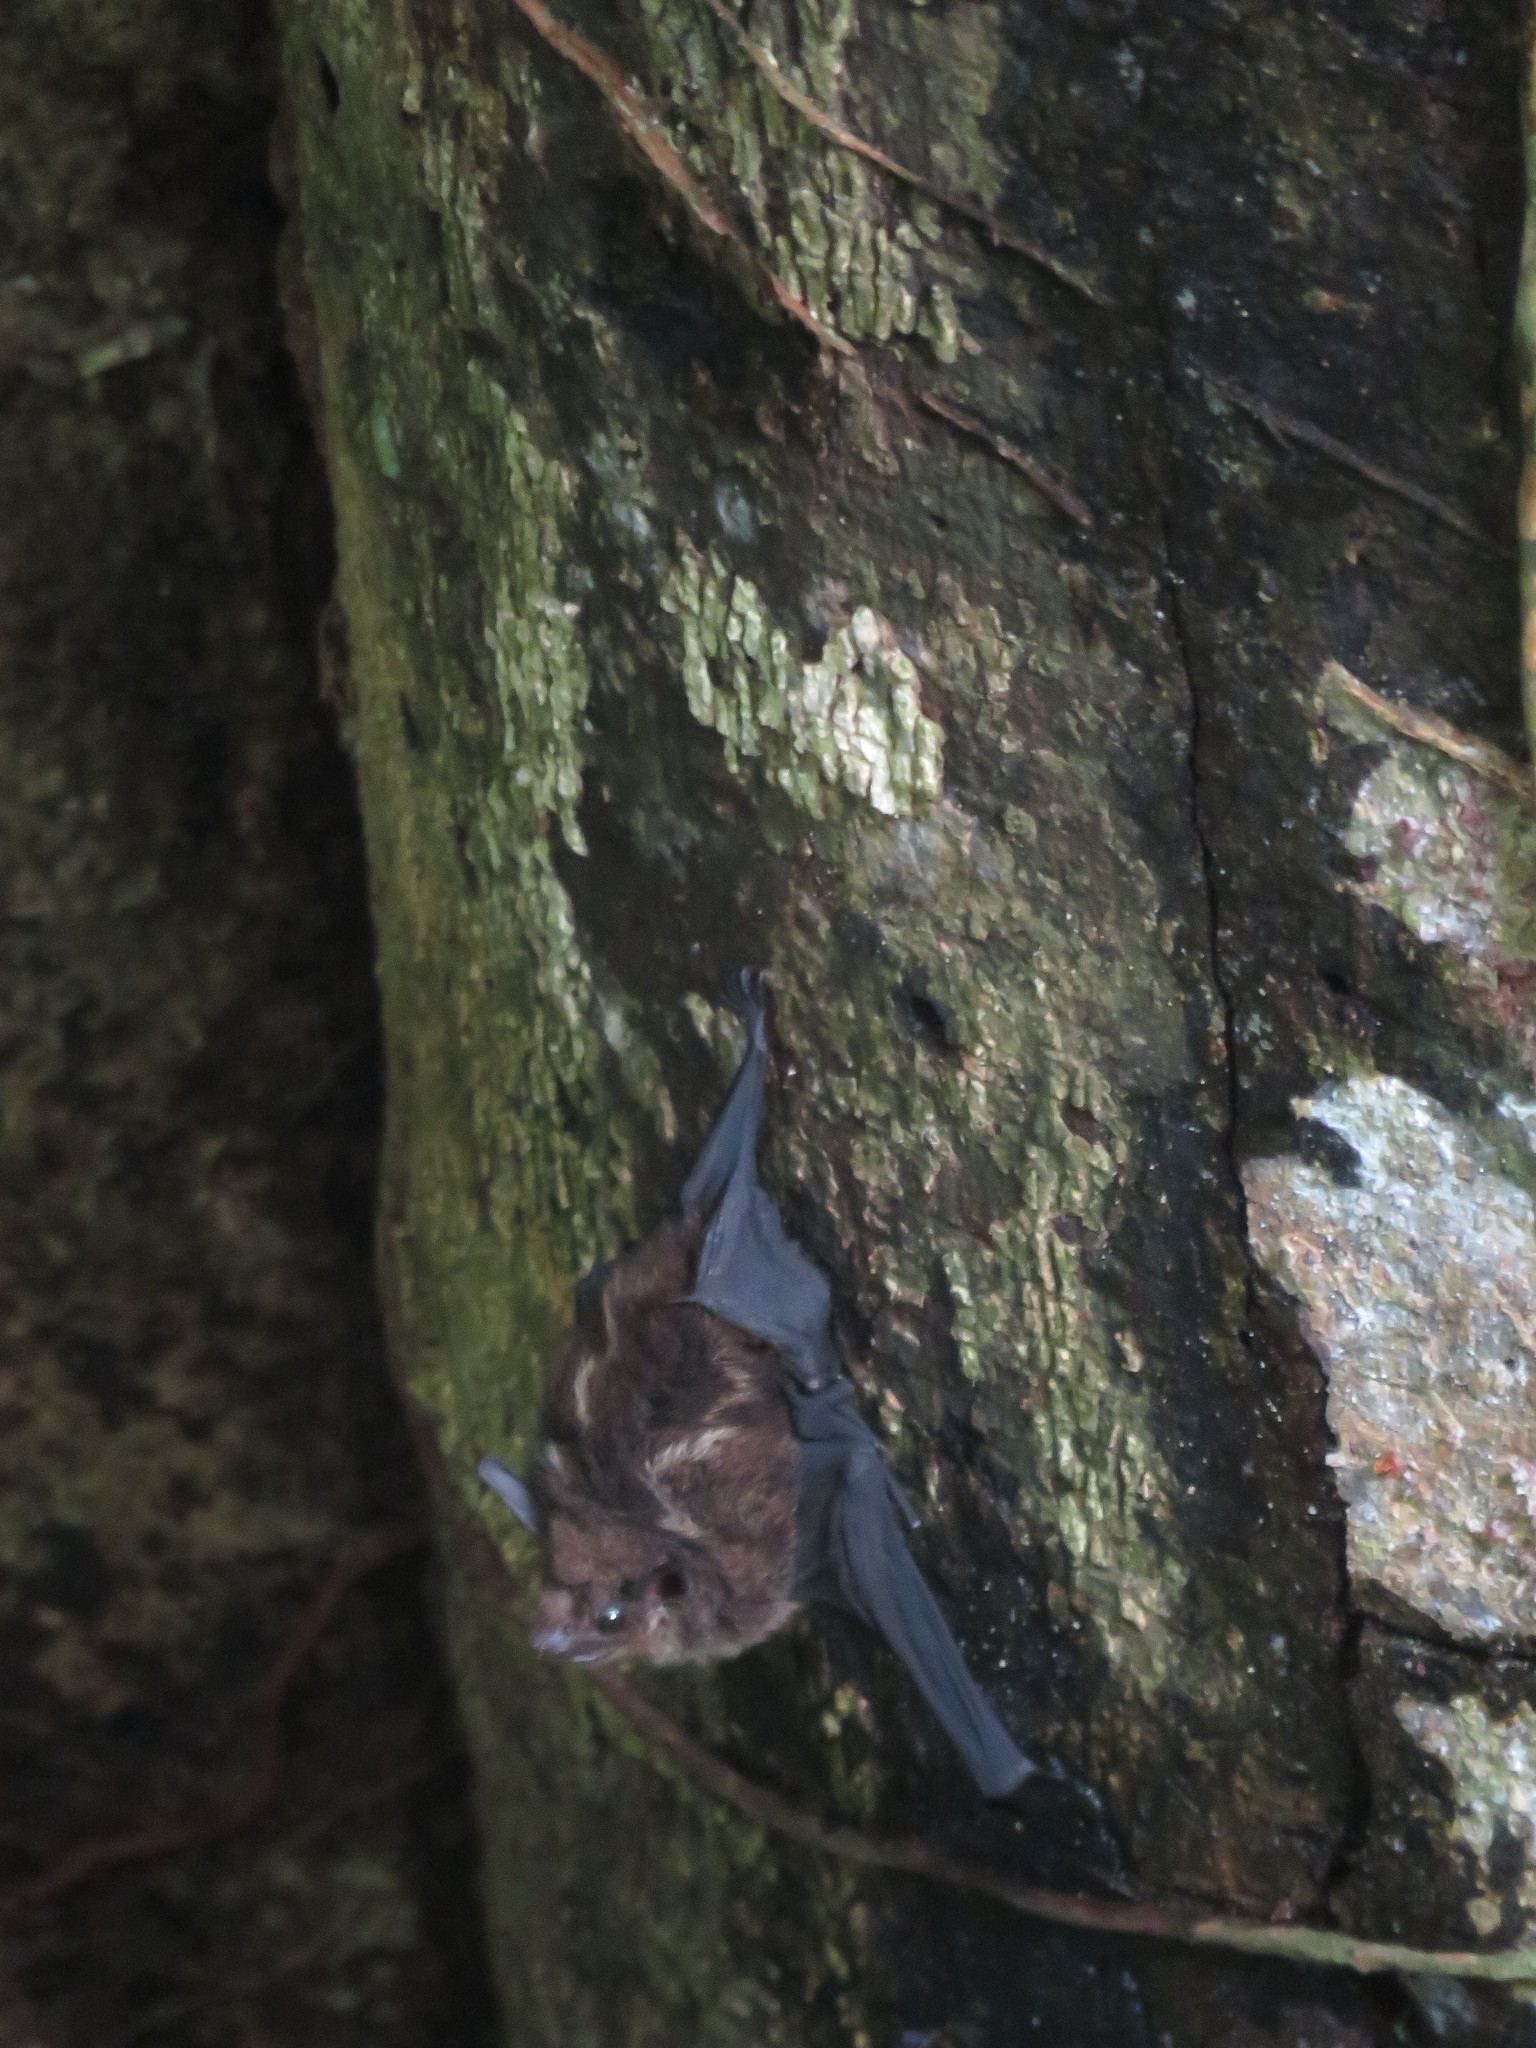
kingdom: Animalia
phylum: Chordata
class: Mammalia
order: Chiroptera
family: Emballonuridae
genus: Saccopteryx
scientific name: Saccopteryx bilineata
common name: Greater sac-winged bat
